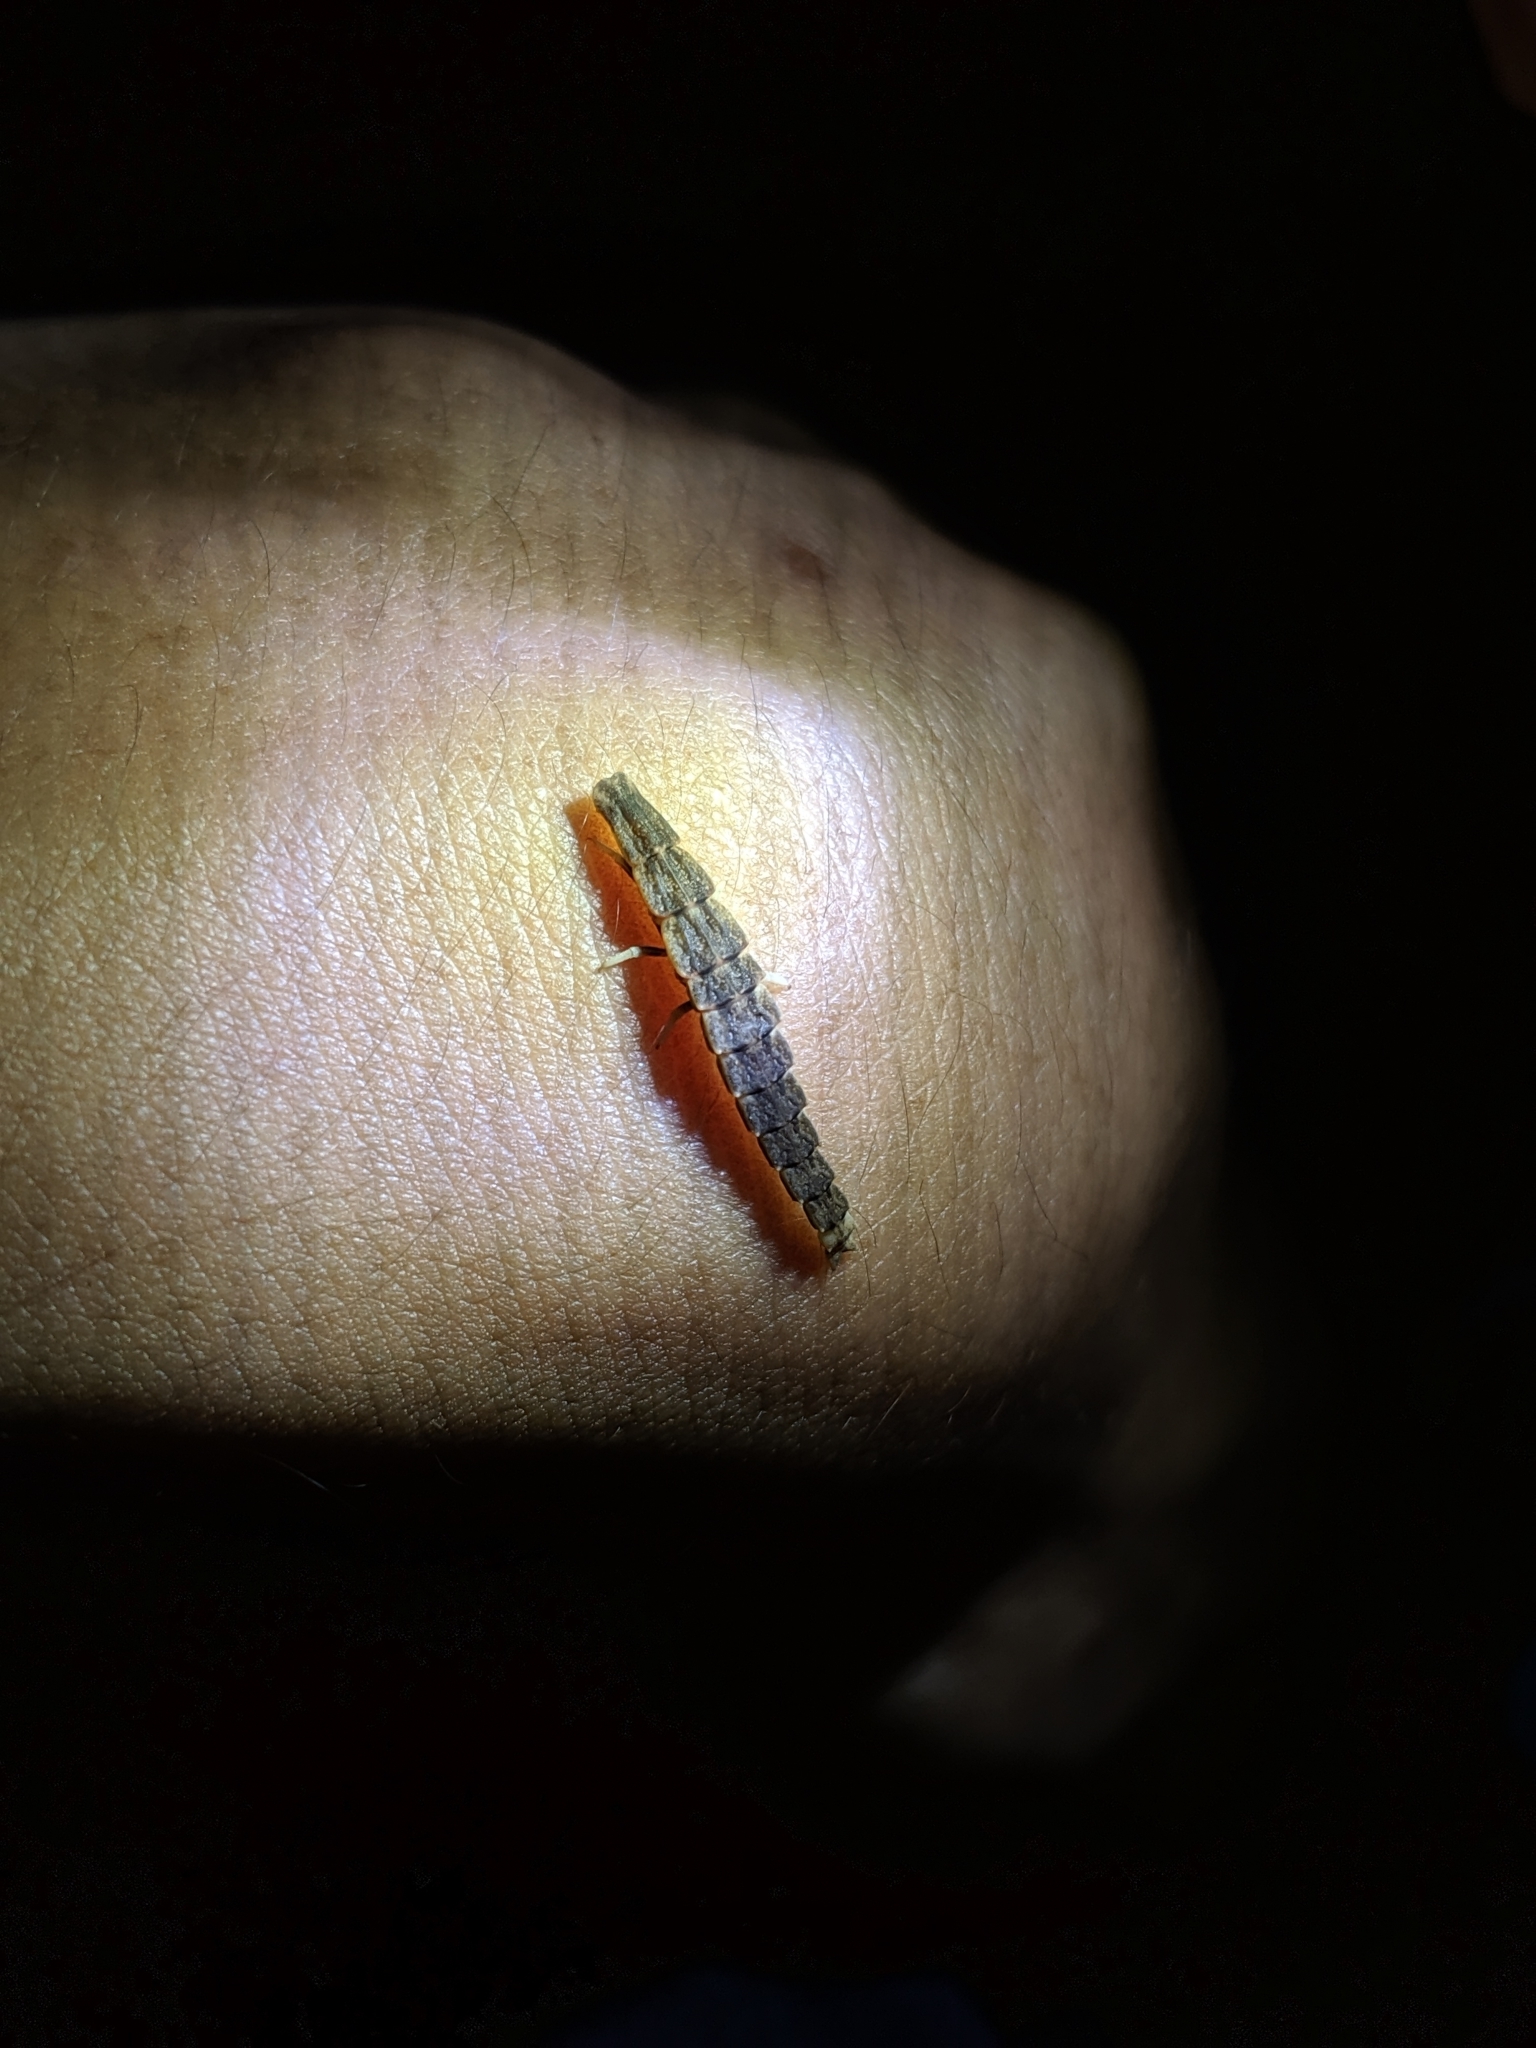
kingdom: Animalia
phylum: Arthropoda
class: Insecta
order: Coleoptera
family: Lampyridae
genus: Pyrocoelia
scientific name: Pyrocoelia formosana
